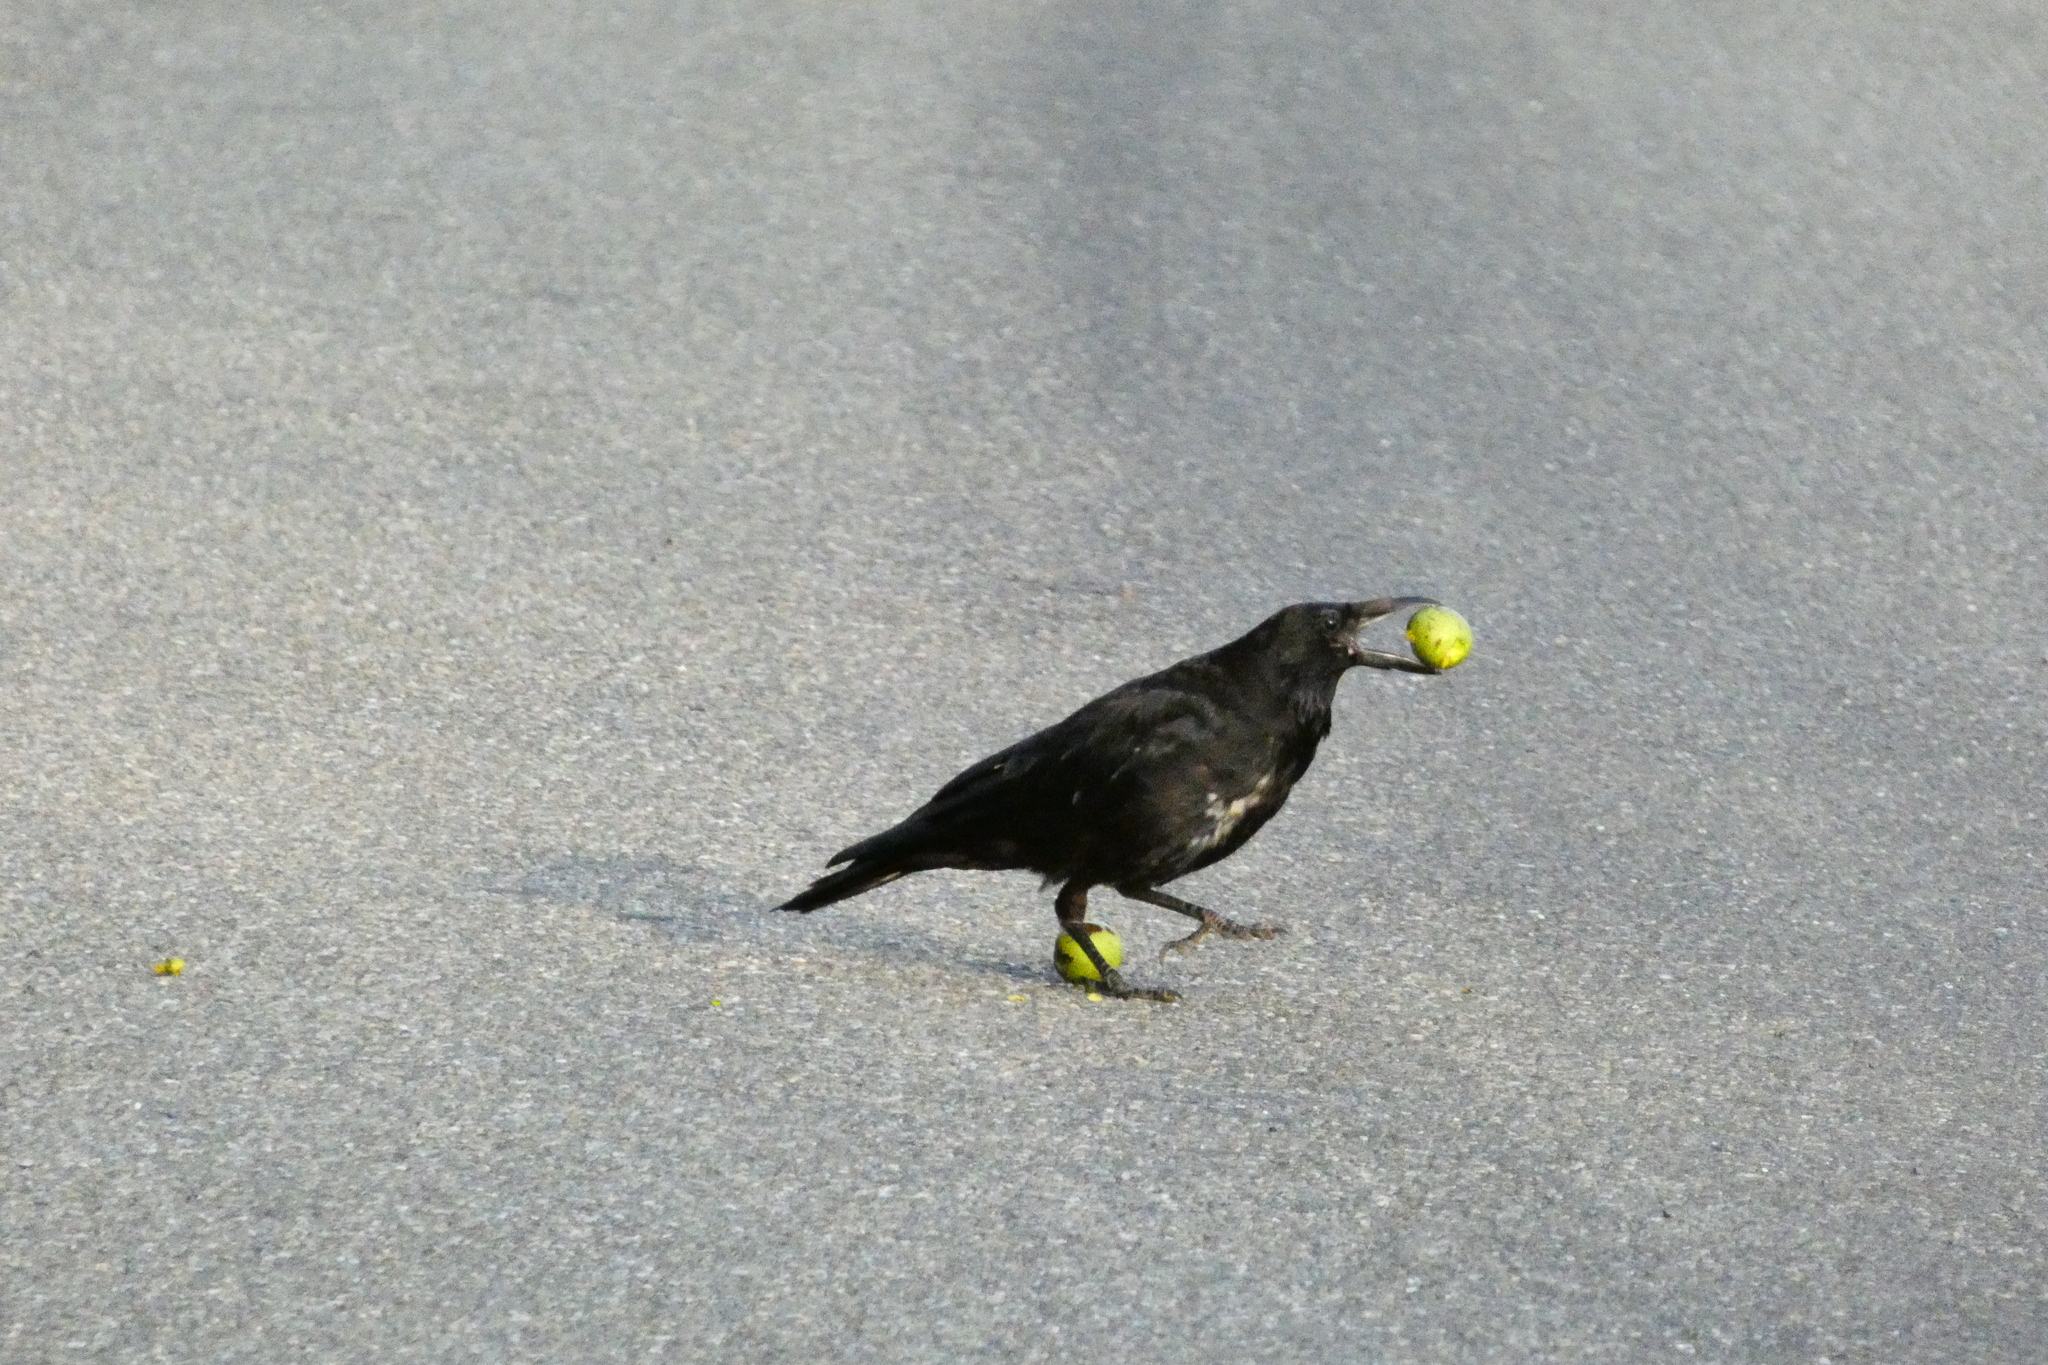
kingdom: Animalia
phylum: Chordata
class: Aves
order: Passeriformes
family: Corvidae
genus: Corvus
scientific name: Corvus corone
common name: Carrion crow
